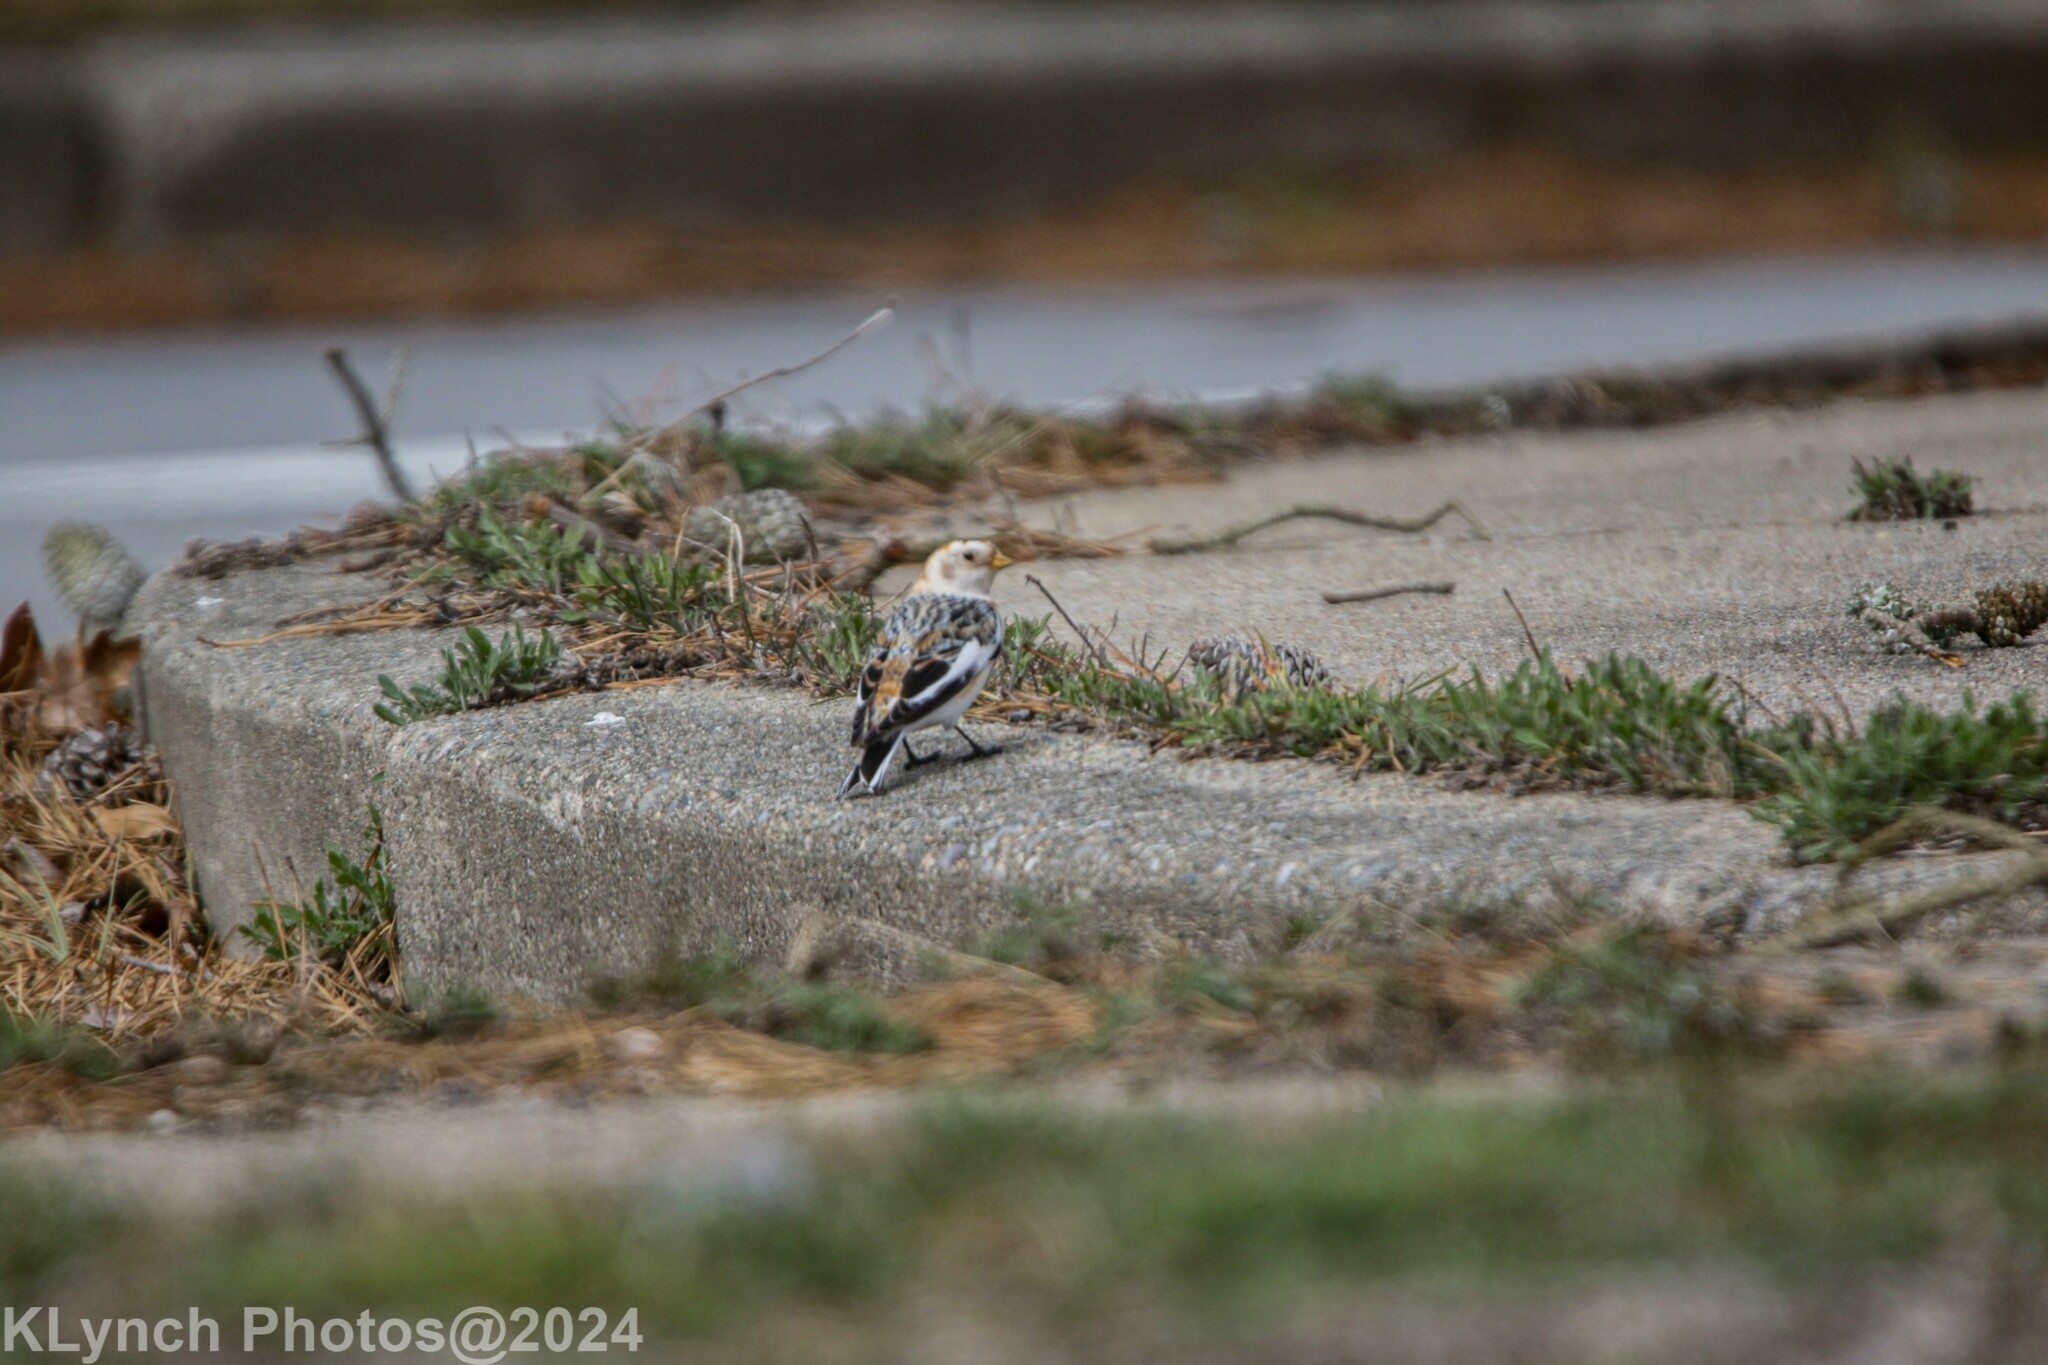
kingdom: Animalia
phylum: Chordata
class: Aves
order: Passeriformes
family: Calcariidae
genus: Plectrophenax
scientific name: Plectrophenax nivalis
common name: Snow bunting
